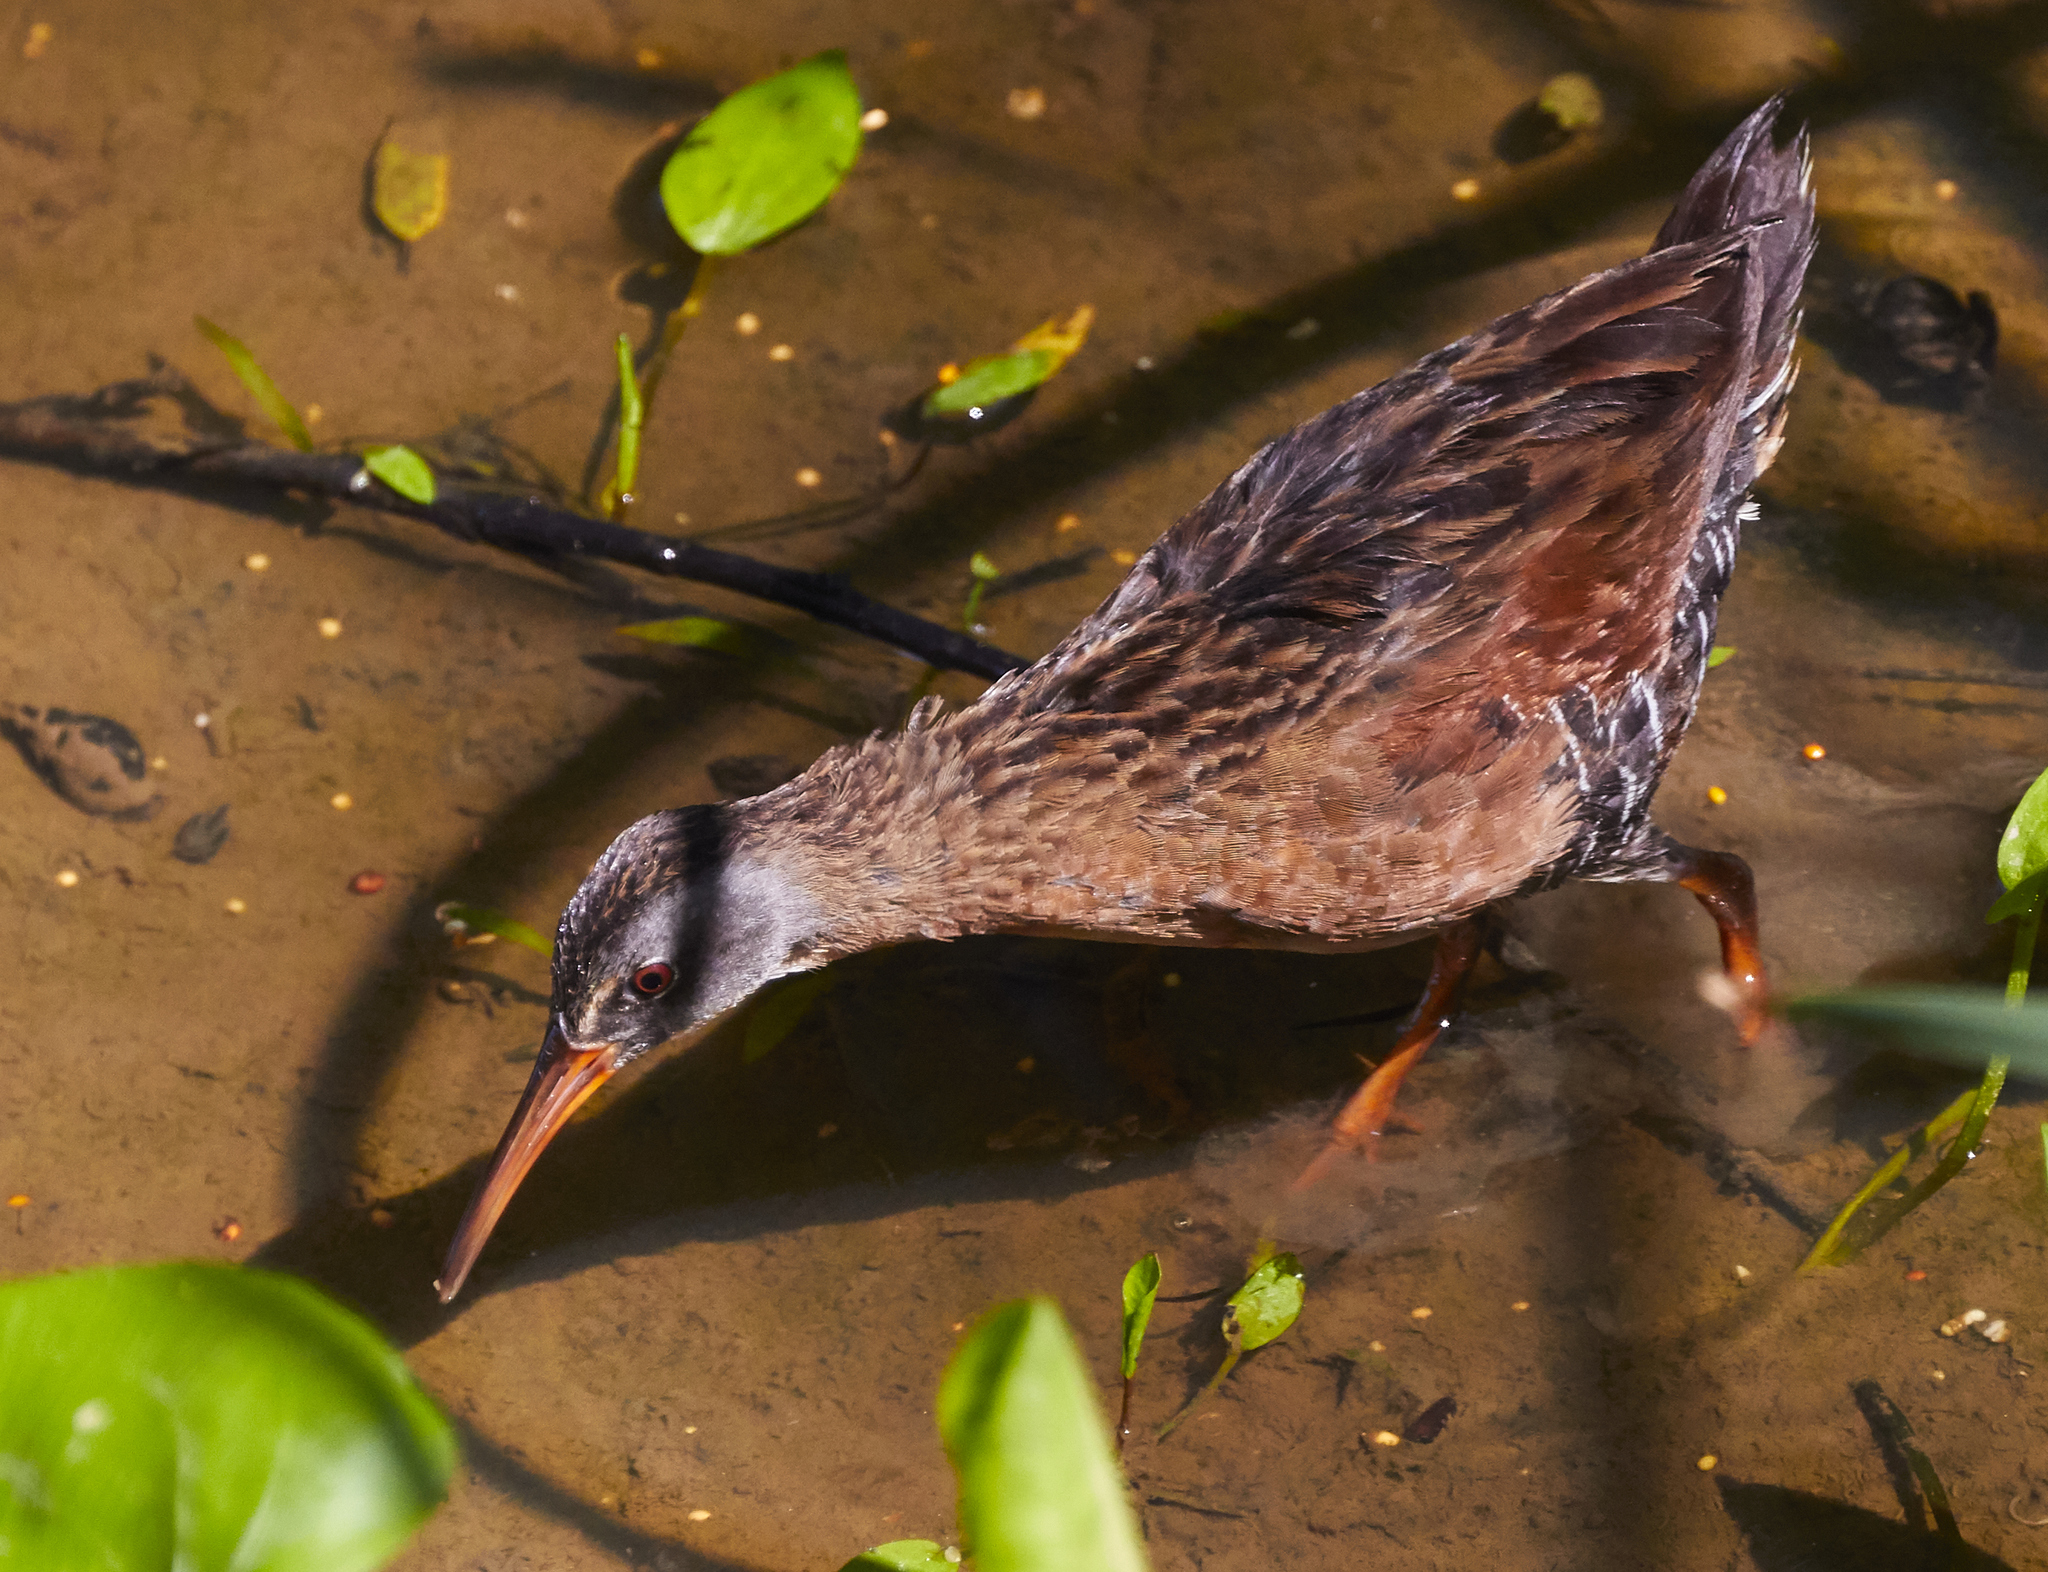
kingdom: Animalia
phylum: Chordata
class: Aves
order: Gruiformes
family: Rallidae
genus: Rallus
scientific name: Rallus limicola
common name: Virginia rail
